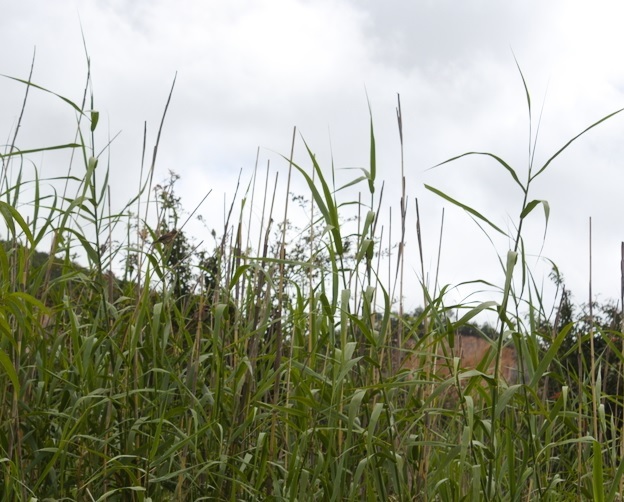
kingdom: Plantae
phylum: Tracheophyta
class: Liliopsida
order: Poales
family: Poaceae
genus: Phragmites
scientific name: Phragmites australis
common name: Common reed
